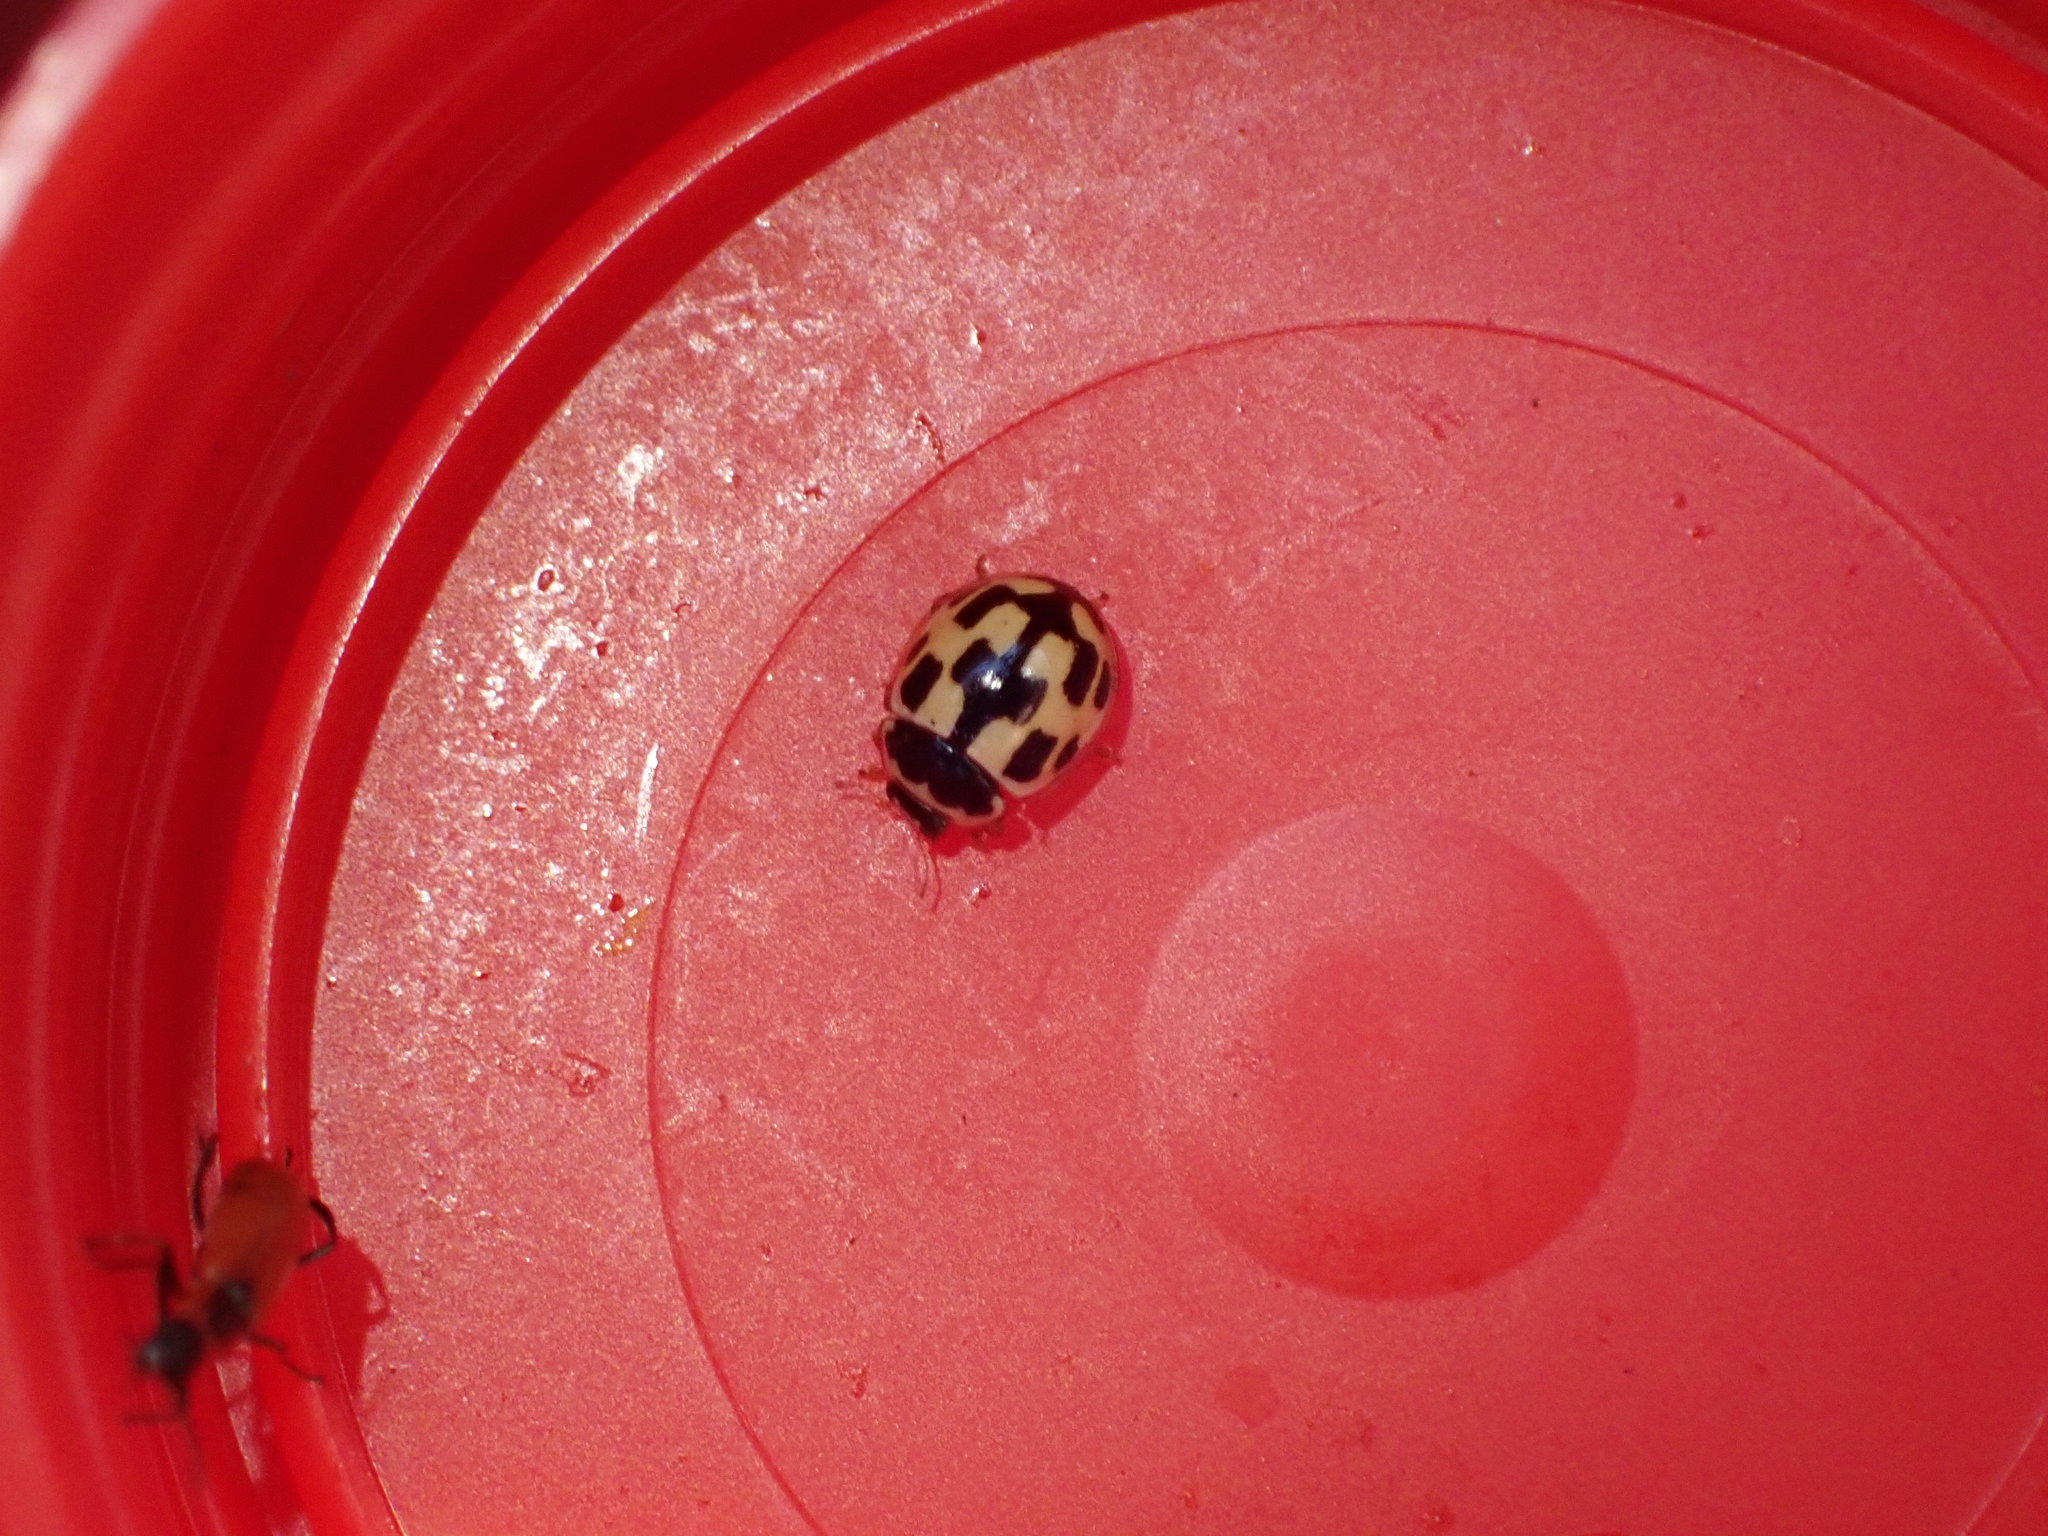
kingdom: Animalia
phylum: Arthropoda
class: Insecta
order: Coleoptera
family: Coccinellidae
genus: Propylaea
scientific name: Propylaea quatuordecimpunctata
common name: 14-spotted ladybird beetle
